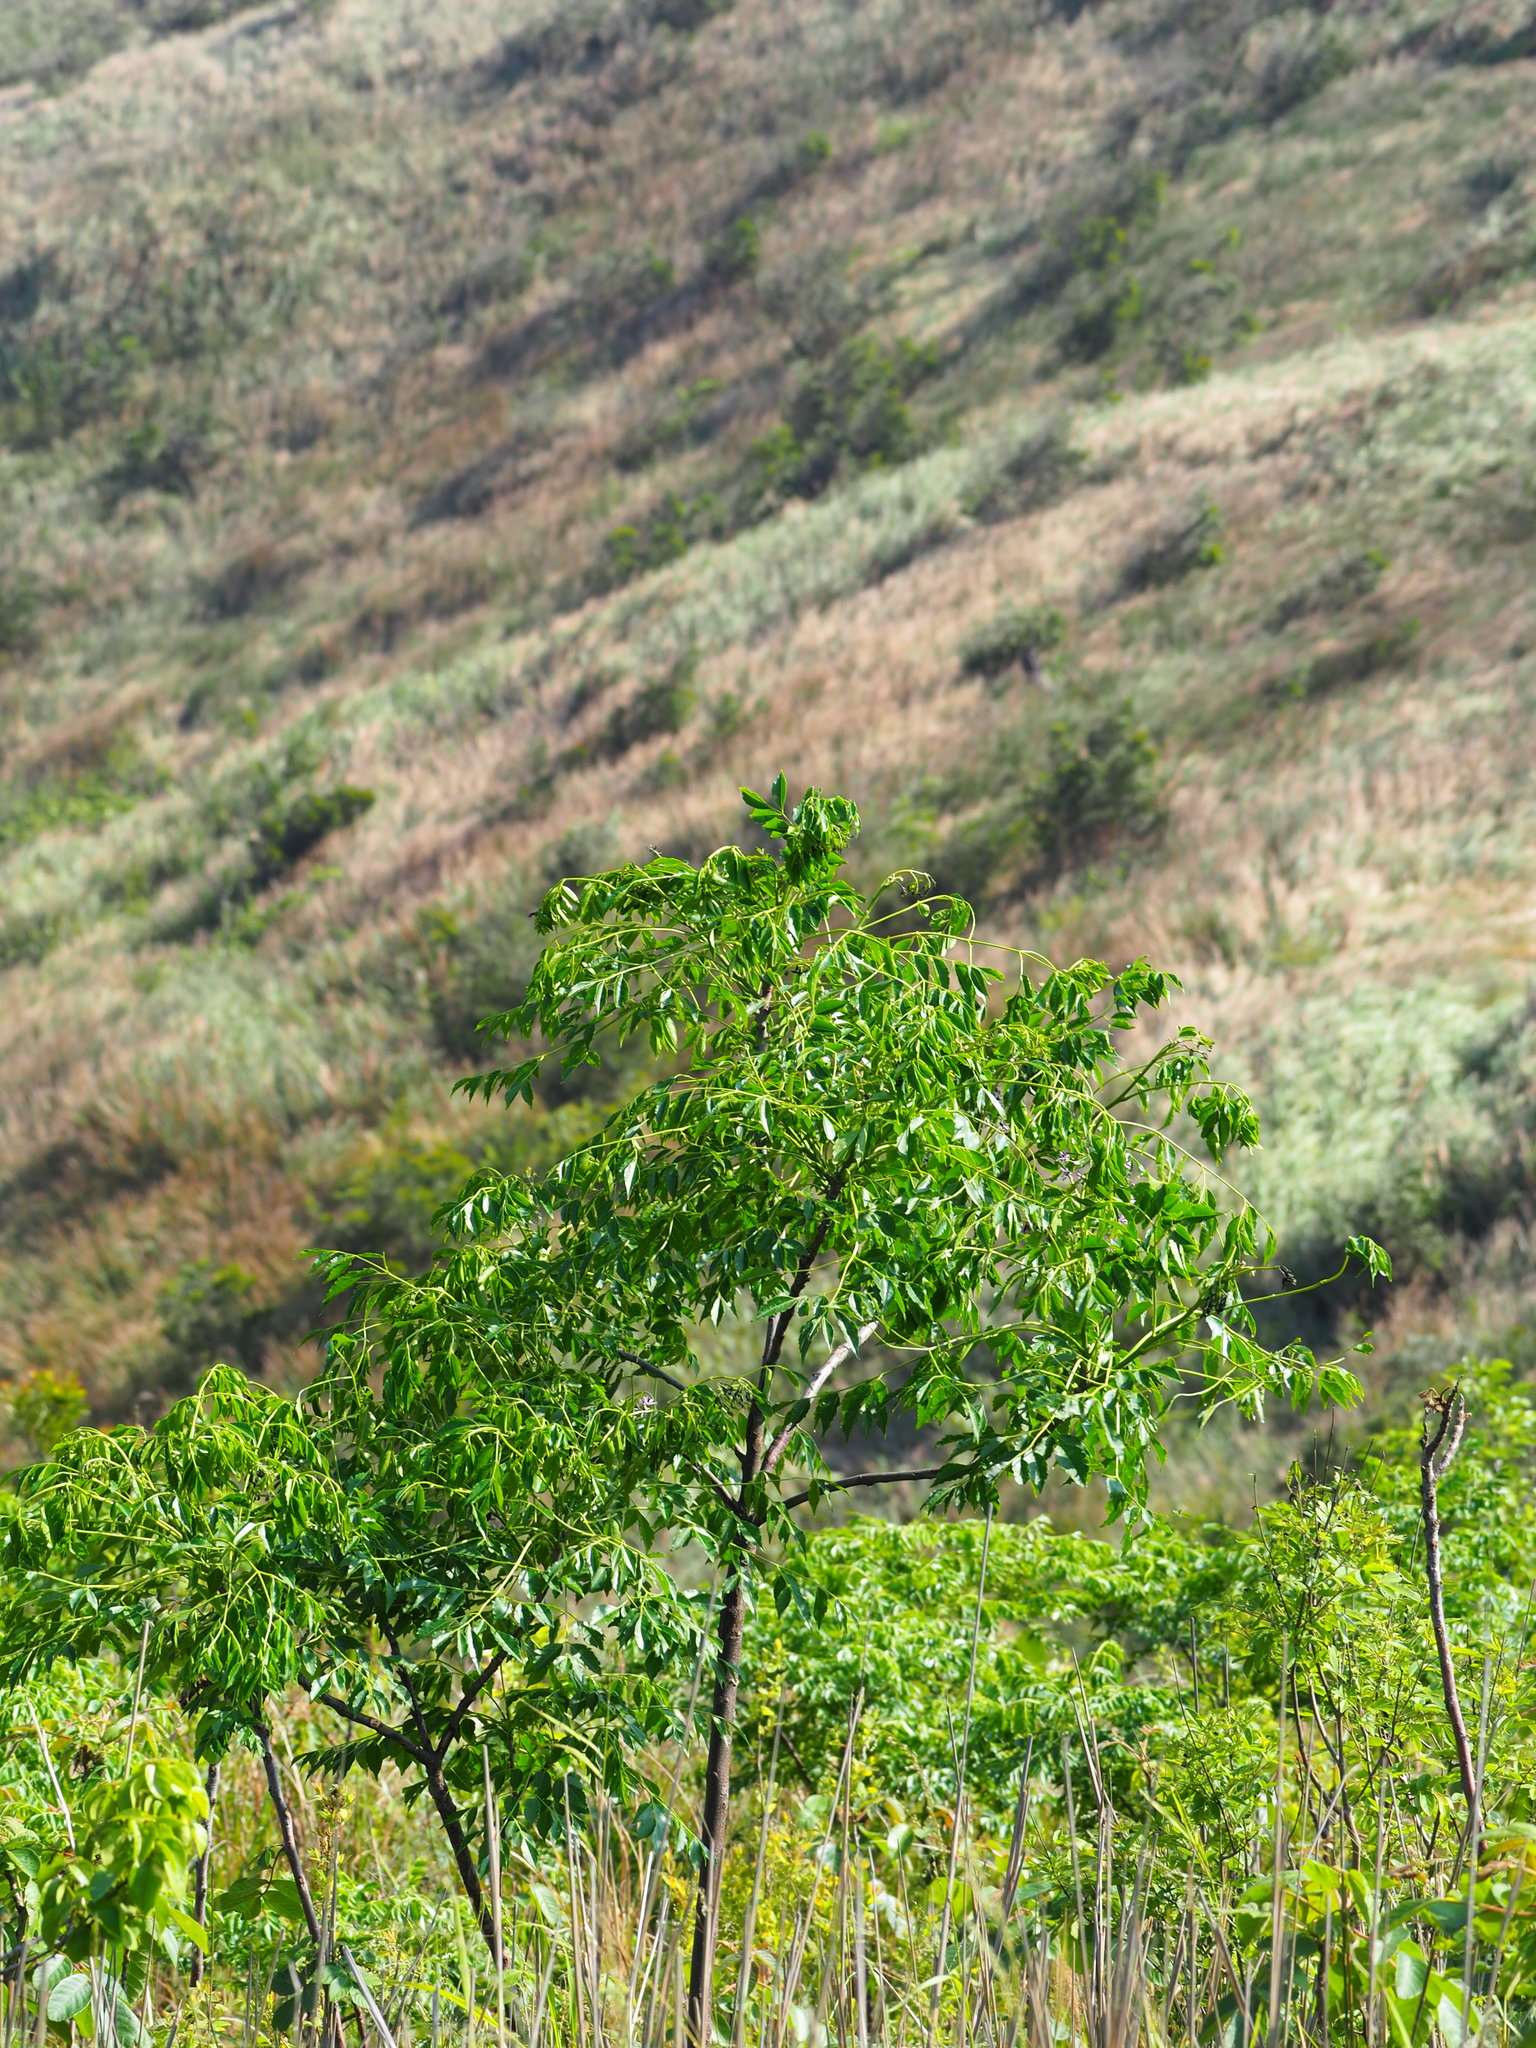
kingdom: Plantae
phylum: Tracheophyta
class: Magnoliopsida
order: Sapindales
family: Meliaceae
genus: Melia
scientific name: Melia azedarach
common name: Chinaberrytree
